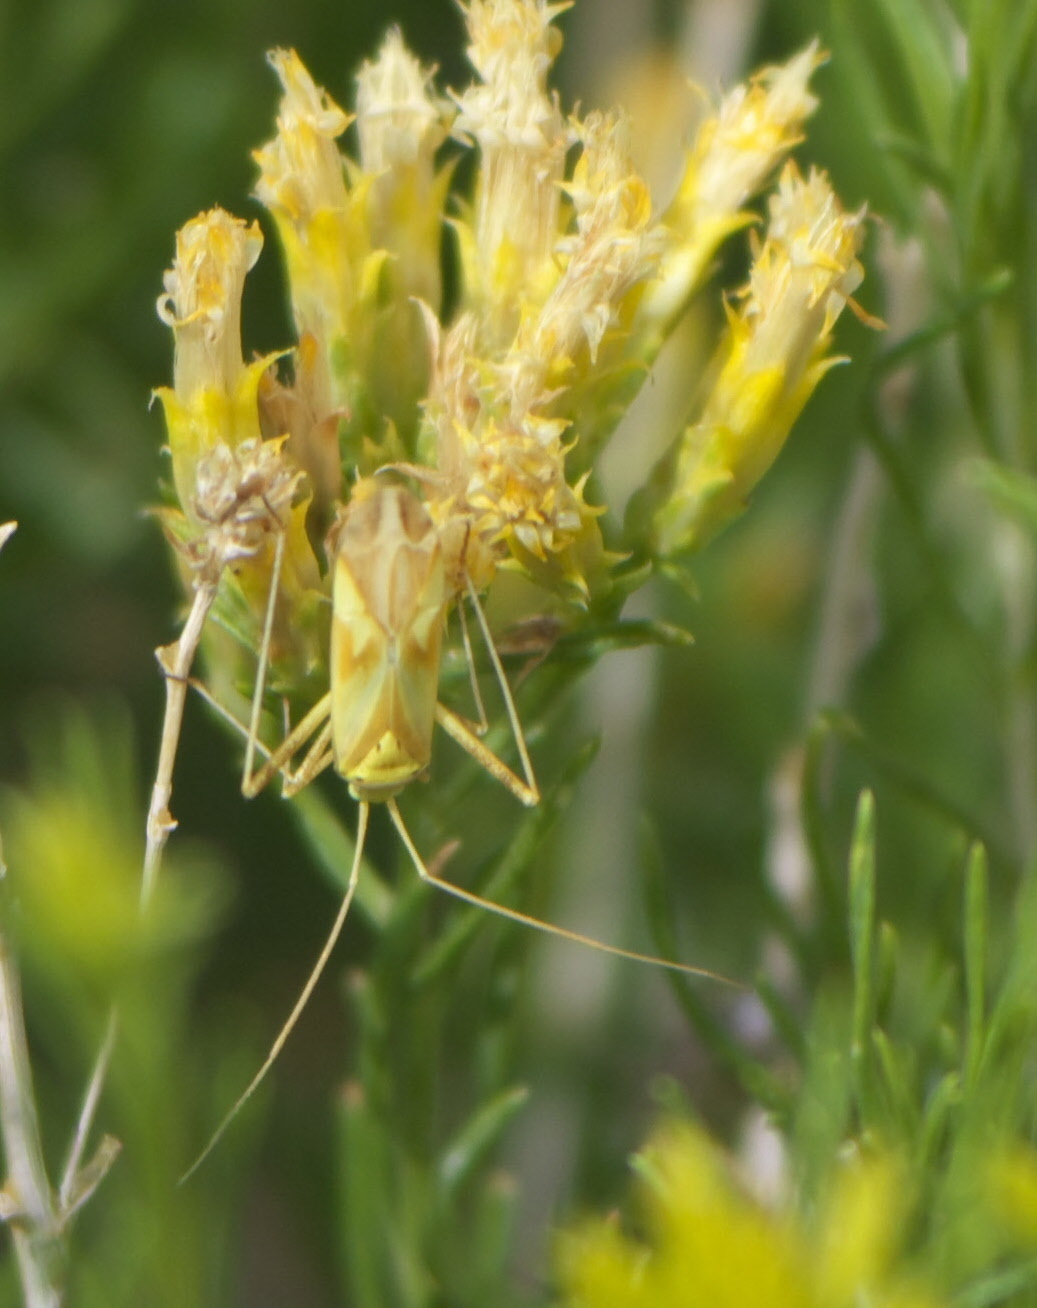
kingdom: Animalia
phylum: Arthropoda
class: Insecta
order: Hemiptera
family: Miridae
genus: Phytocoris
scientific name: Phytocoris laevis
